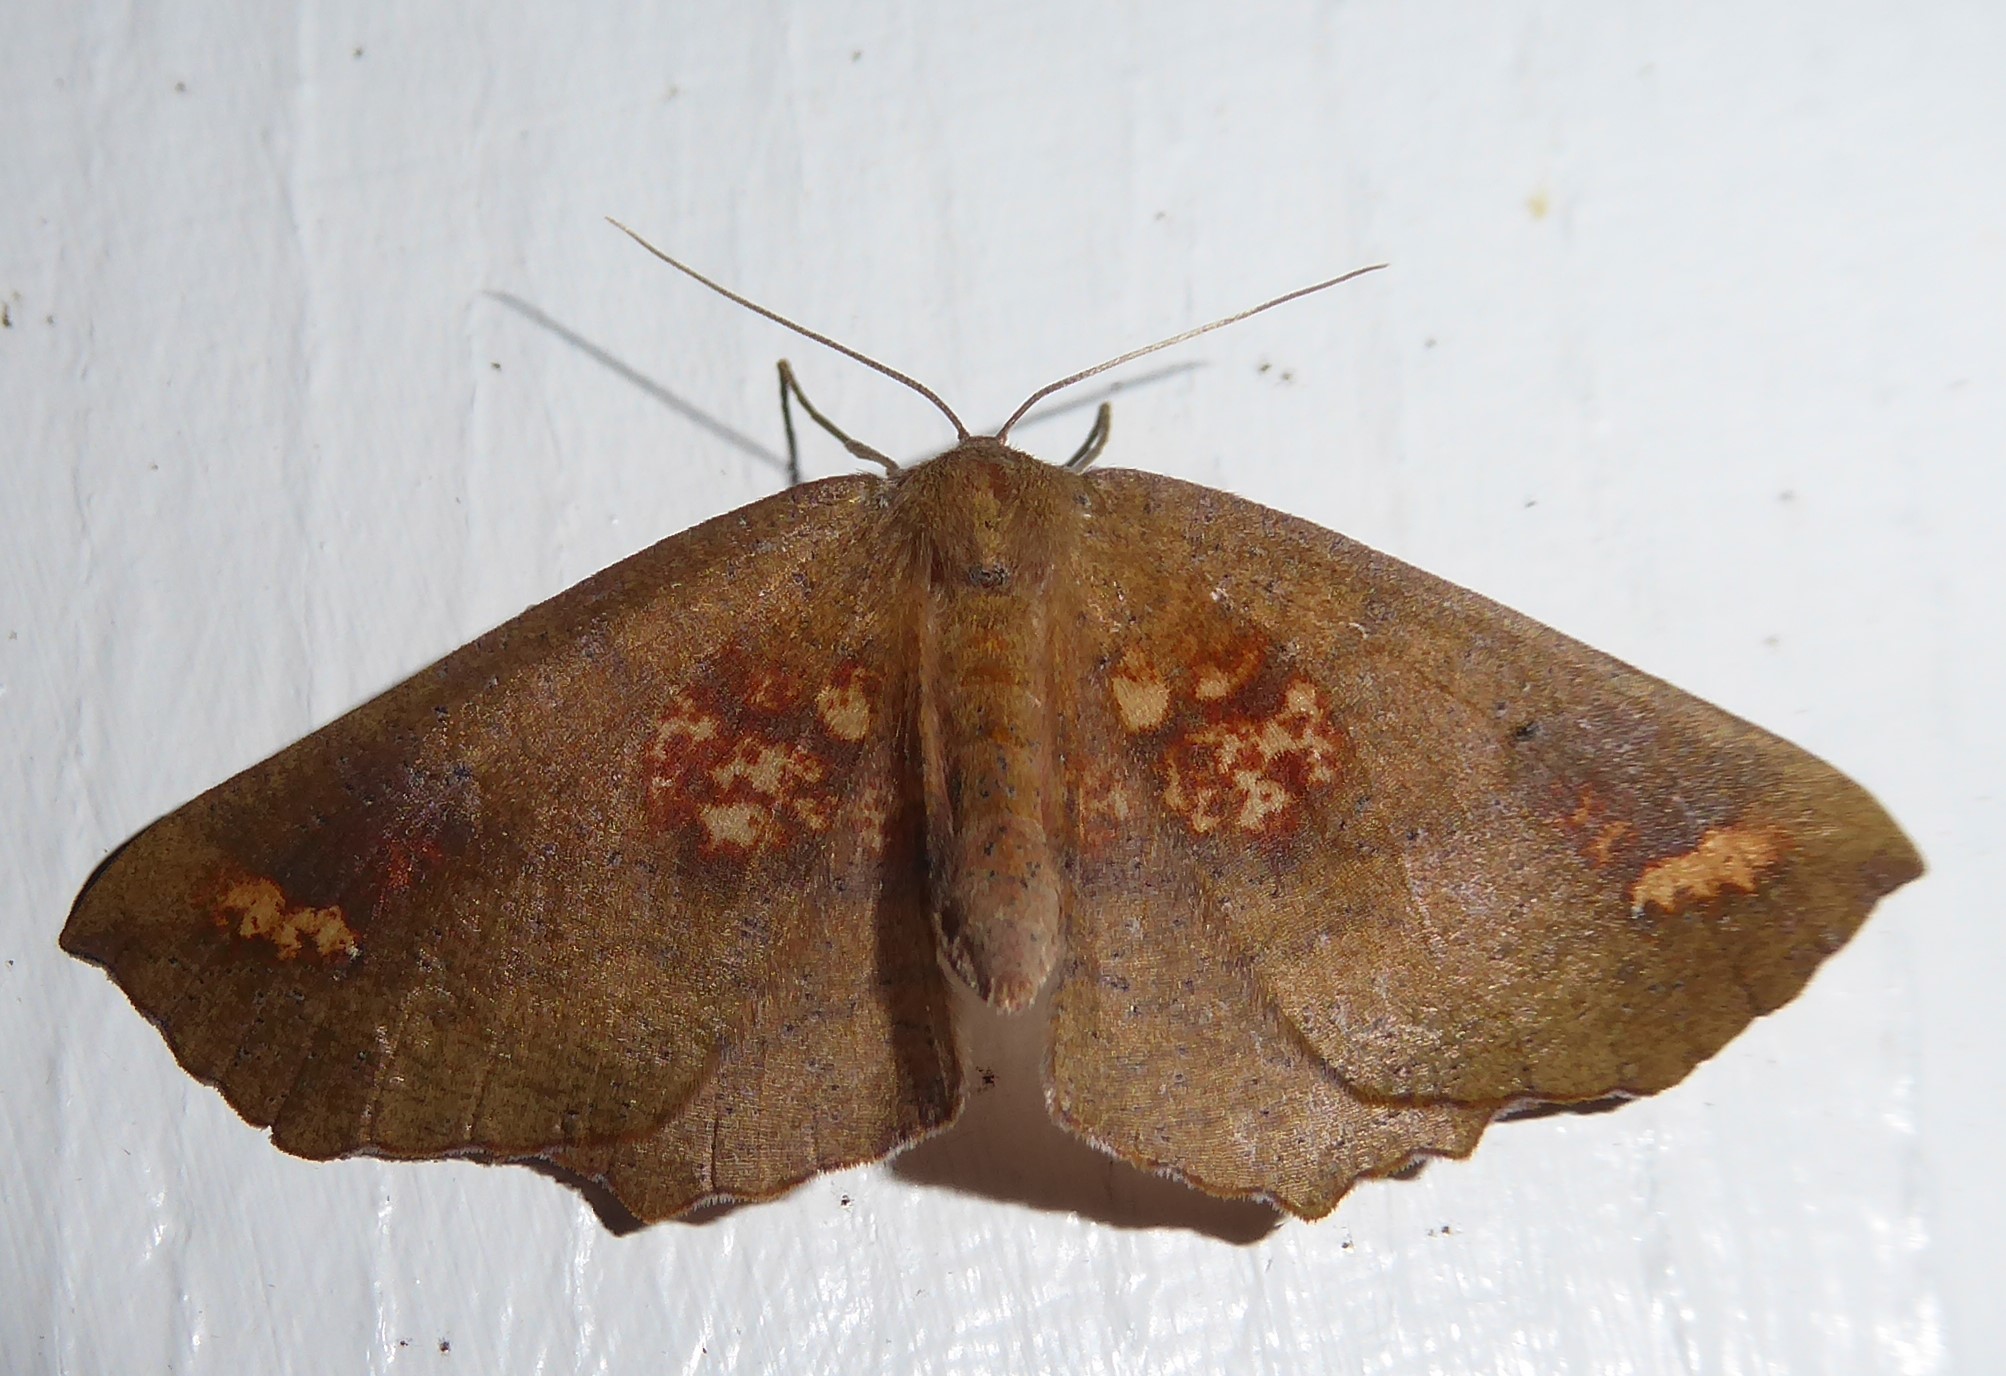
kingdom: Animalia
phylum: Arthropoda
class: Insecta
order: Lepidoptera
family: Geometridae
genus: Xyridacma
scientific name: Xyridacma ustaria
